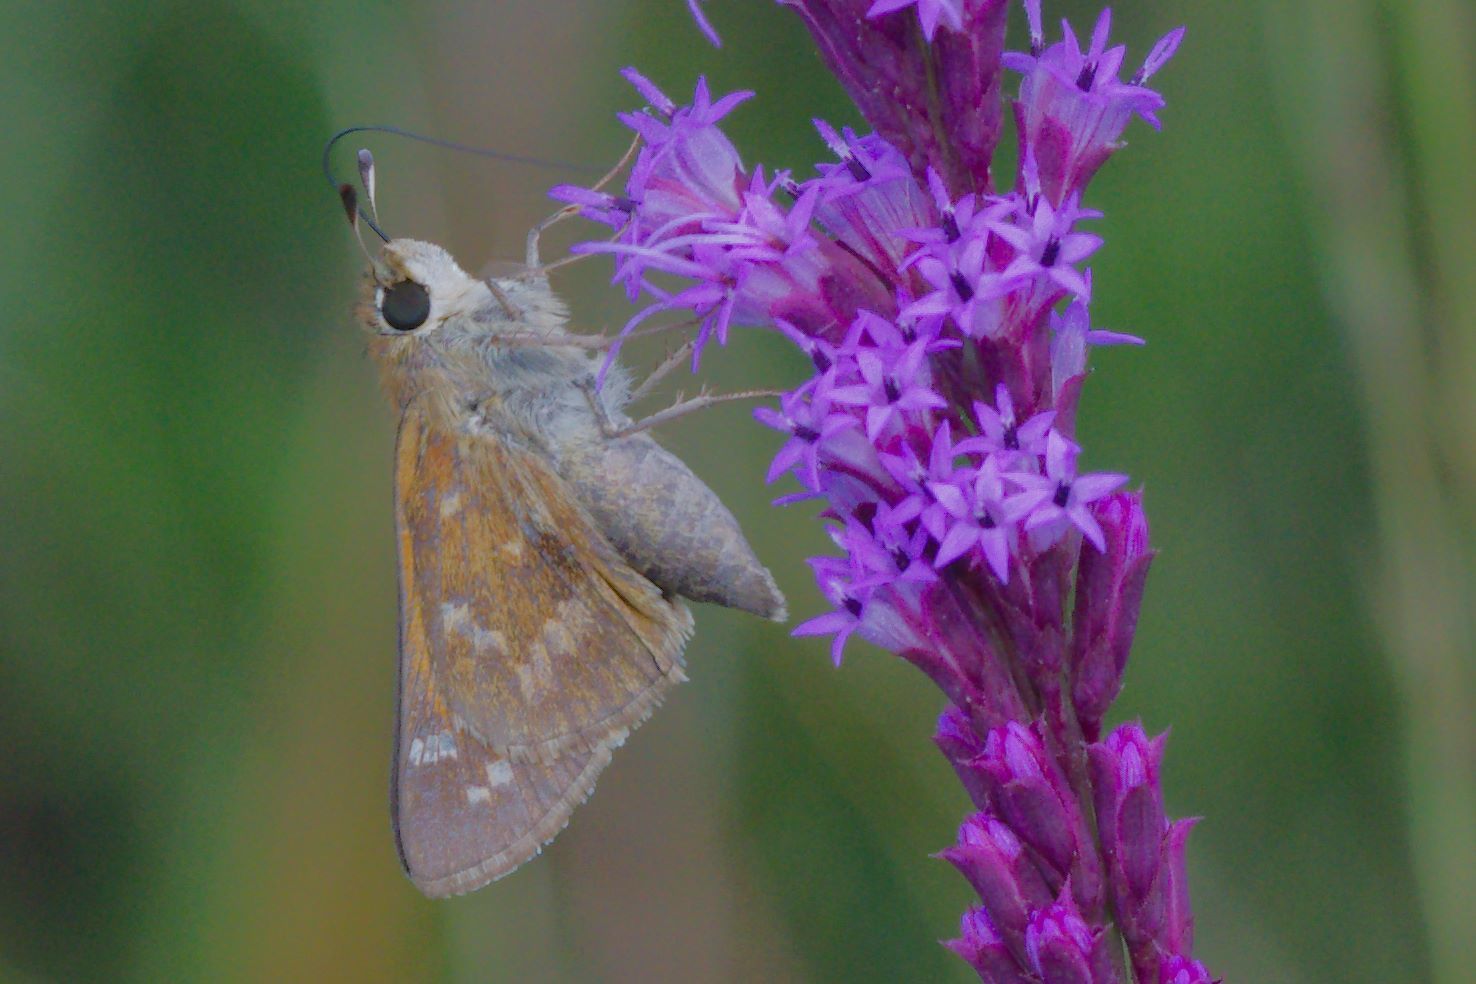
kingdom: Animalia
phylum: Arthropoda
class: Insecta
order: Lepidoptera
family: Hesperiidae
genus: Atalopedes
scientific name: Atalopedes
